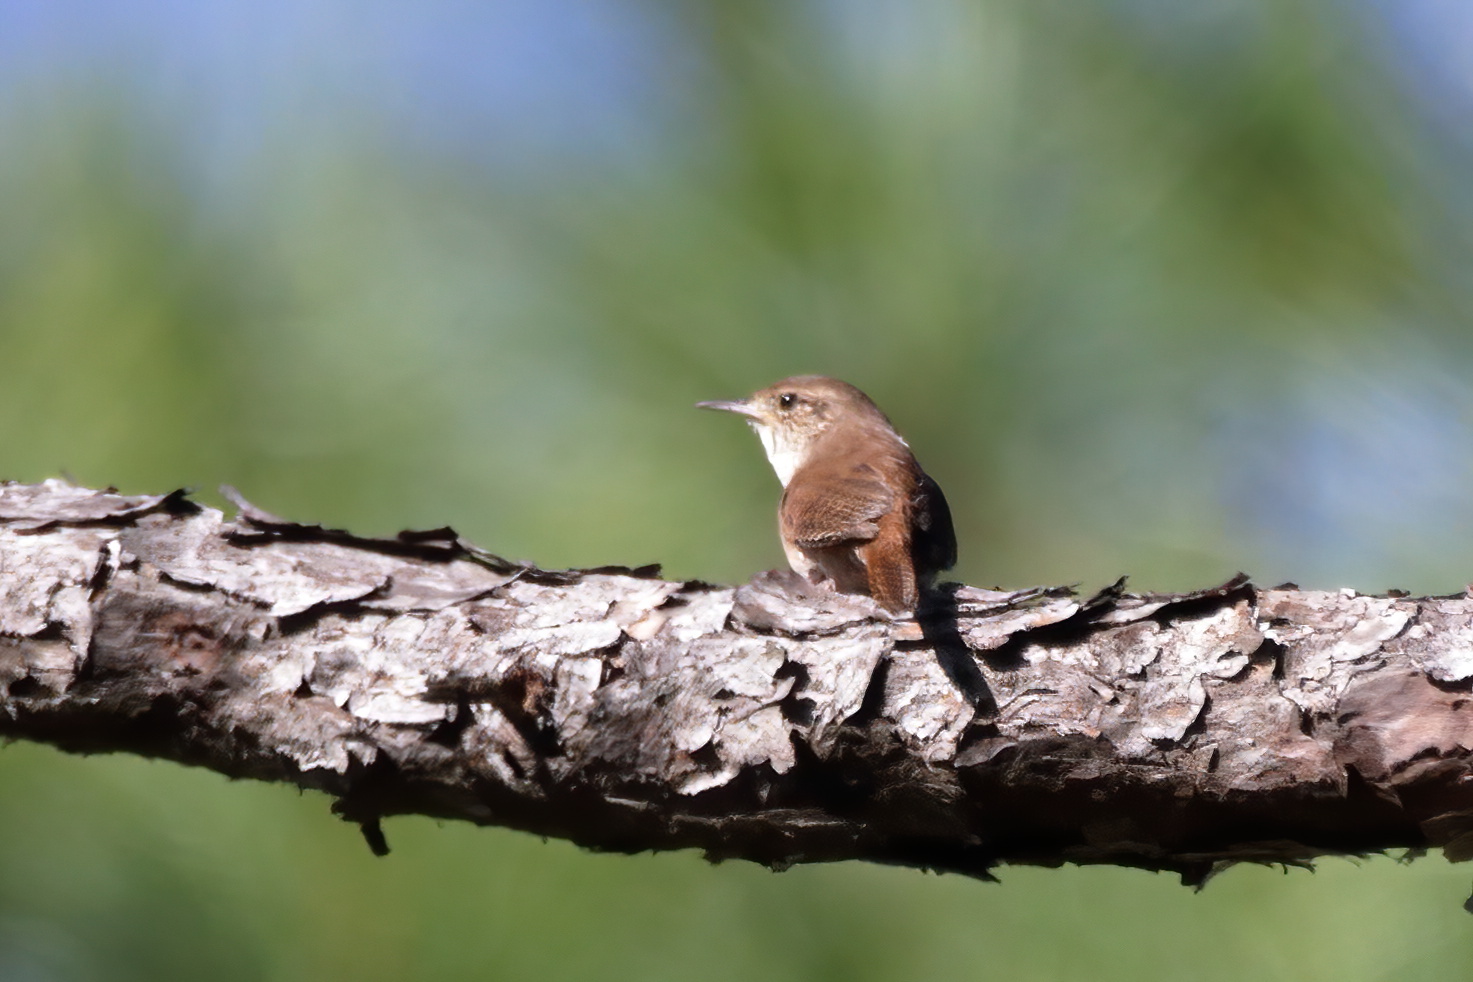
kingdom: Animalia
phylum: Chordata
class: Aves
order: Passeriformes
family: Troglodytidae
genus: Troglodytes
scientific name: Troglodytes aedon
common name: House wren
